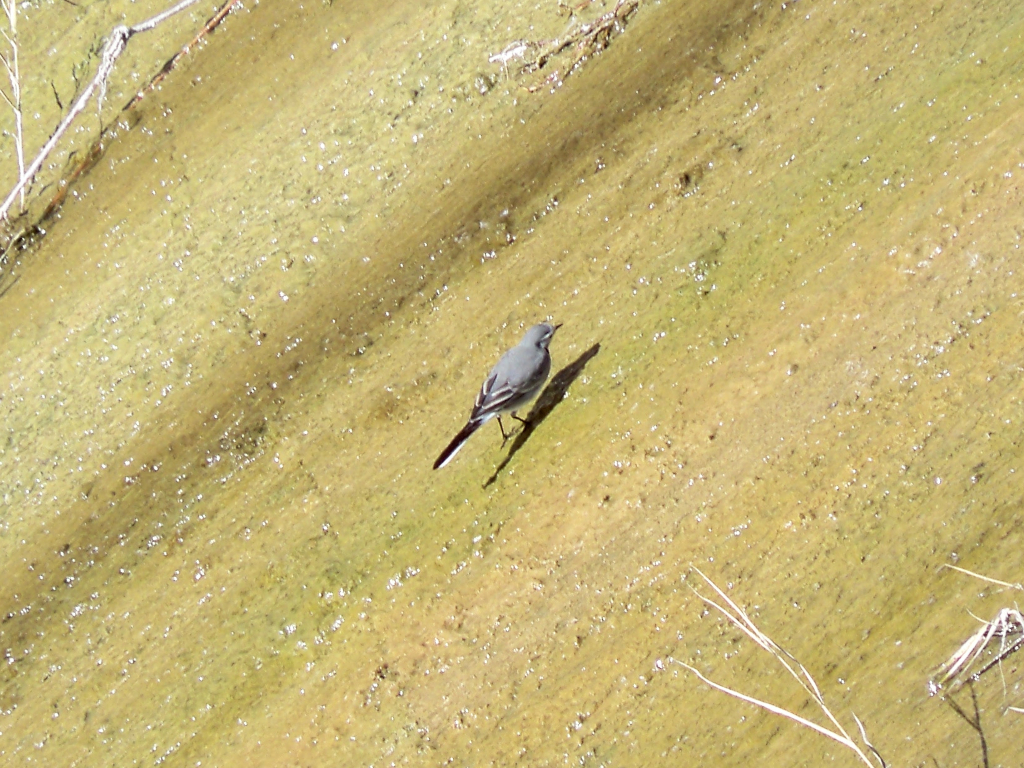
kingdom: Animalia
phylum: Chordata
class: Aves
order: Passeriformes
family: Motacillidae
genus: Motacilla
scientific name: Motacilla alba
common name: White wagtail
